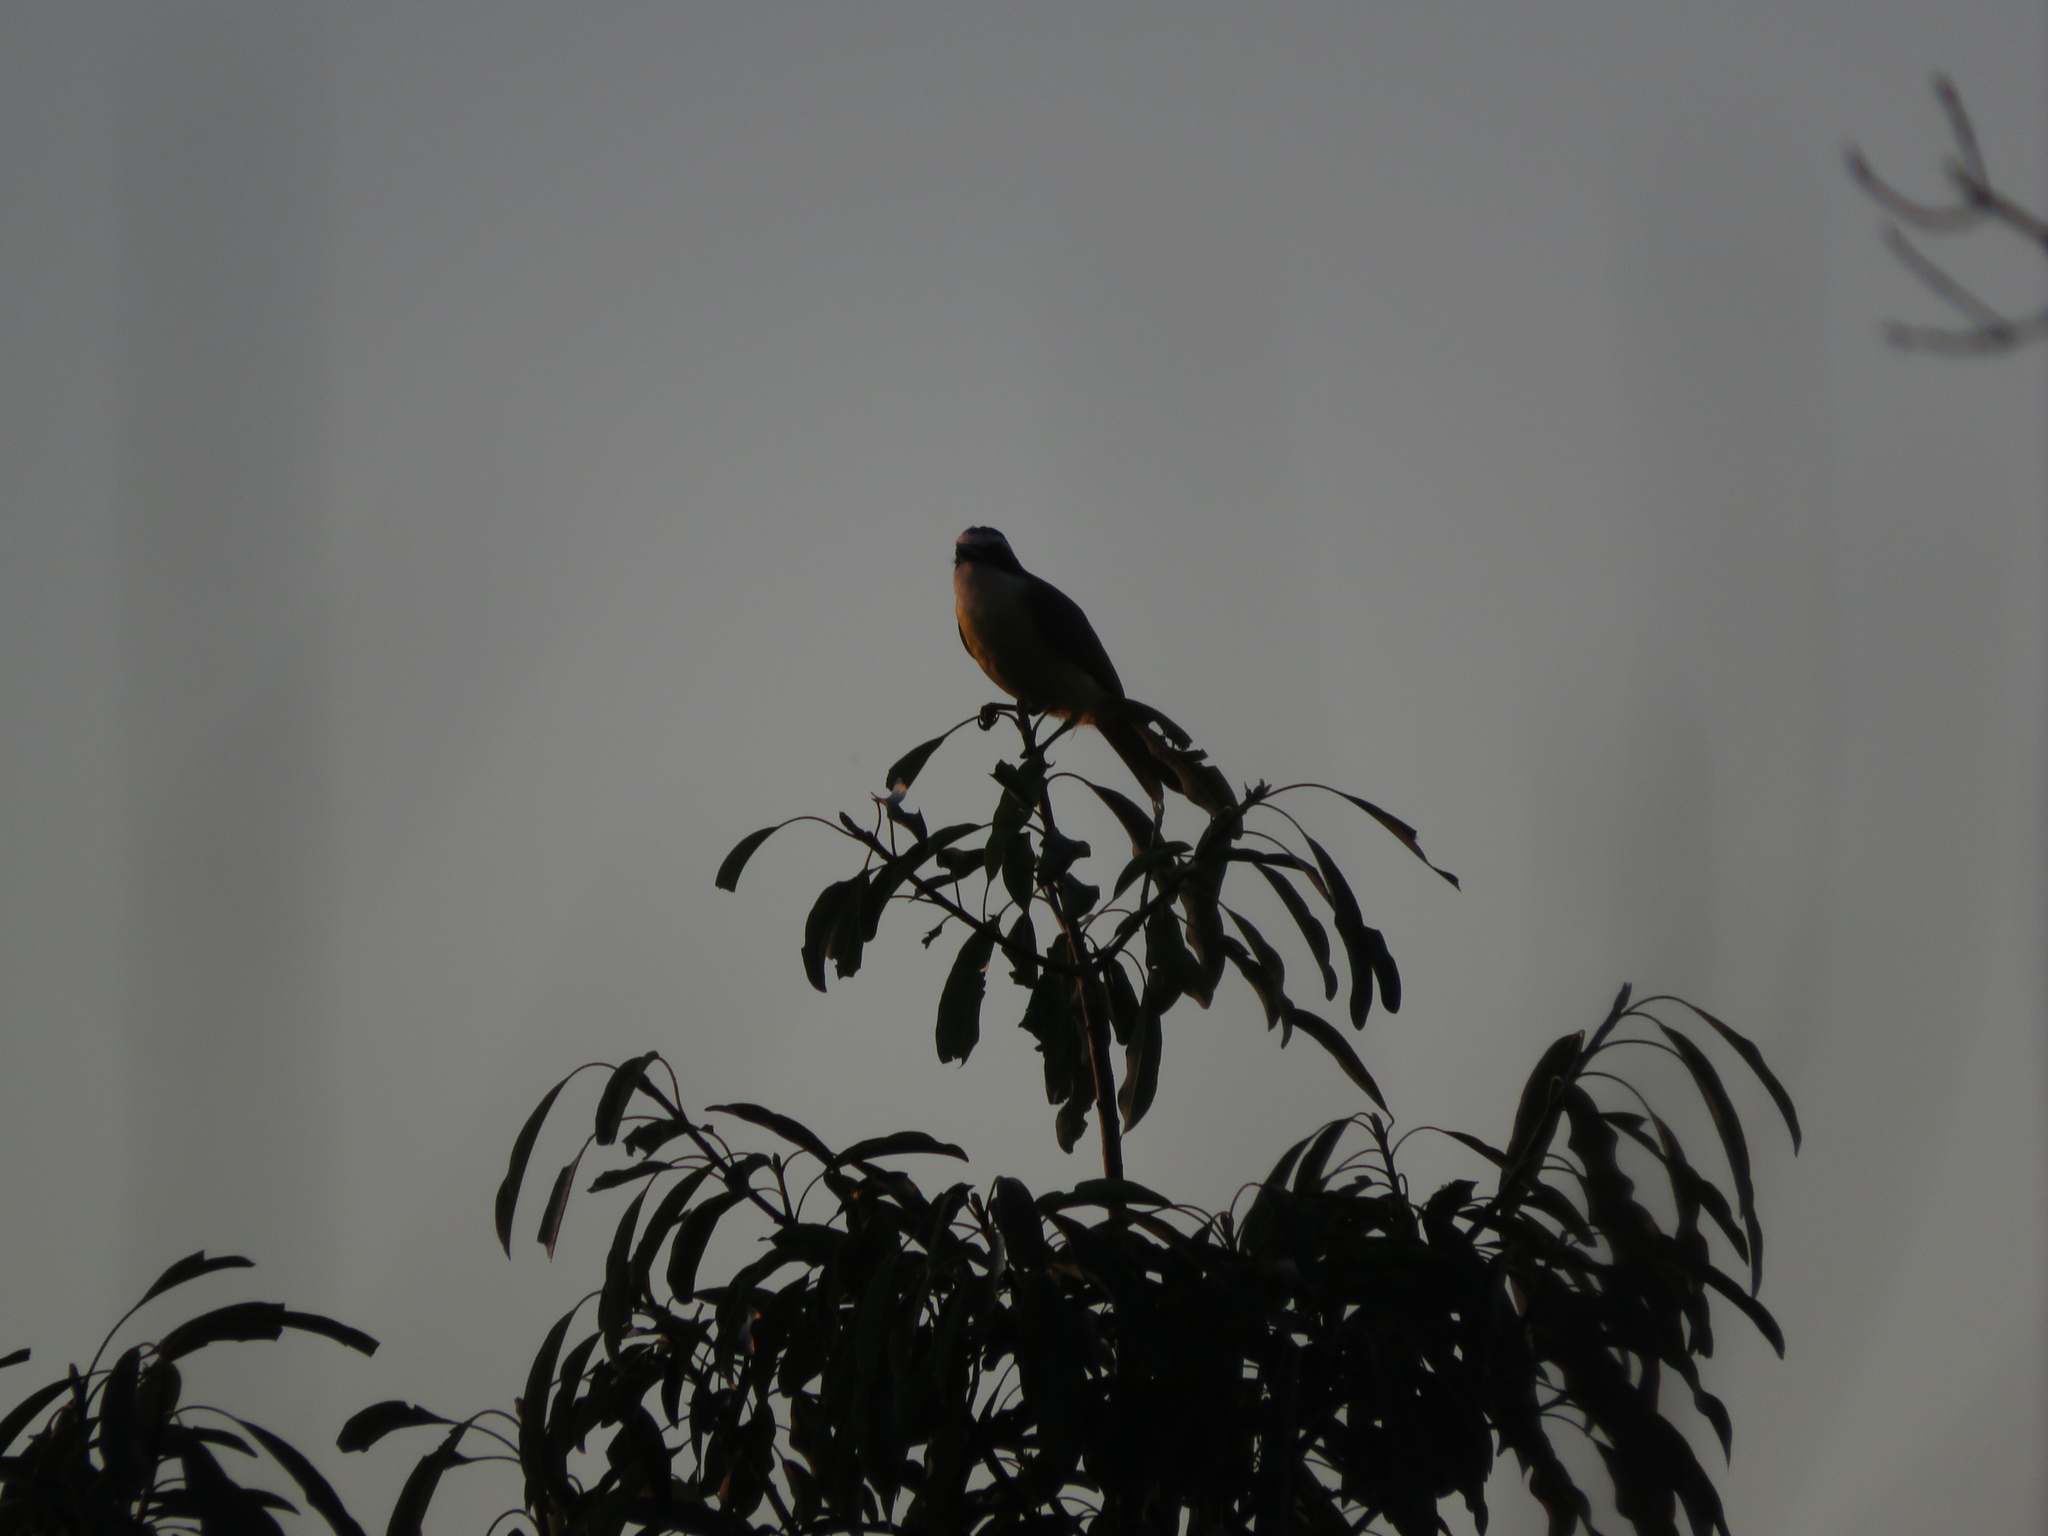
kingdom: Animalia
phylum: Chordata
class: Aves
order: Passeriformes
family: Tyrannidae
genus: Pitangus
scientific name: Pitangus sulphuratus
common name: Great kiskadee
